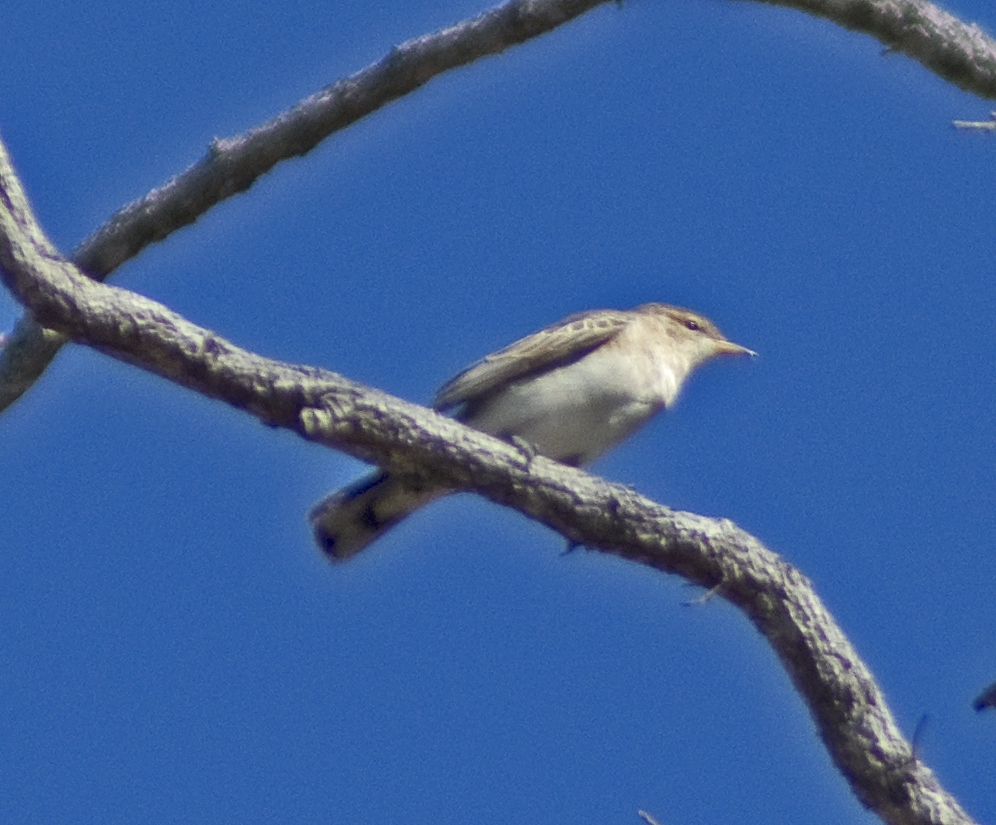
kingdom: Animalia
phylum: Chordata
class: Aves
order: Passeriformes
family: Campephagidae
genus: Lalage
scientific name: Lalage tricolor
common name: White-winged triller
